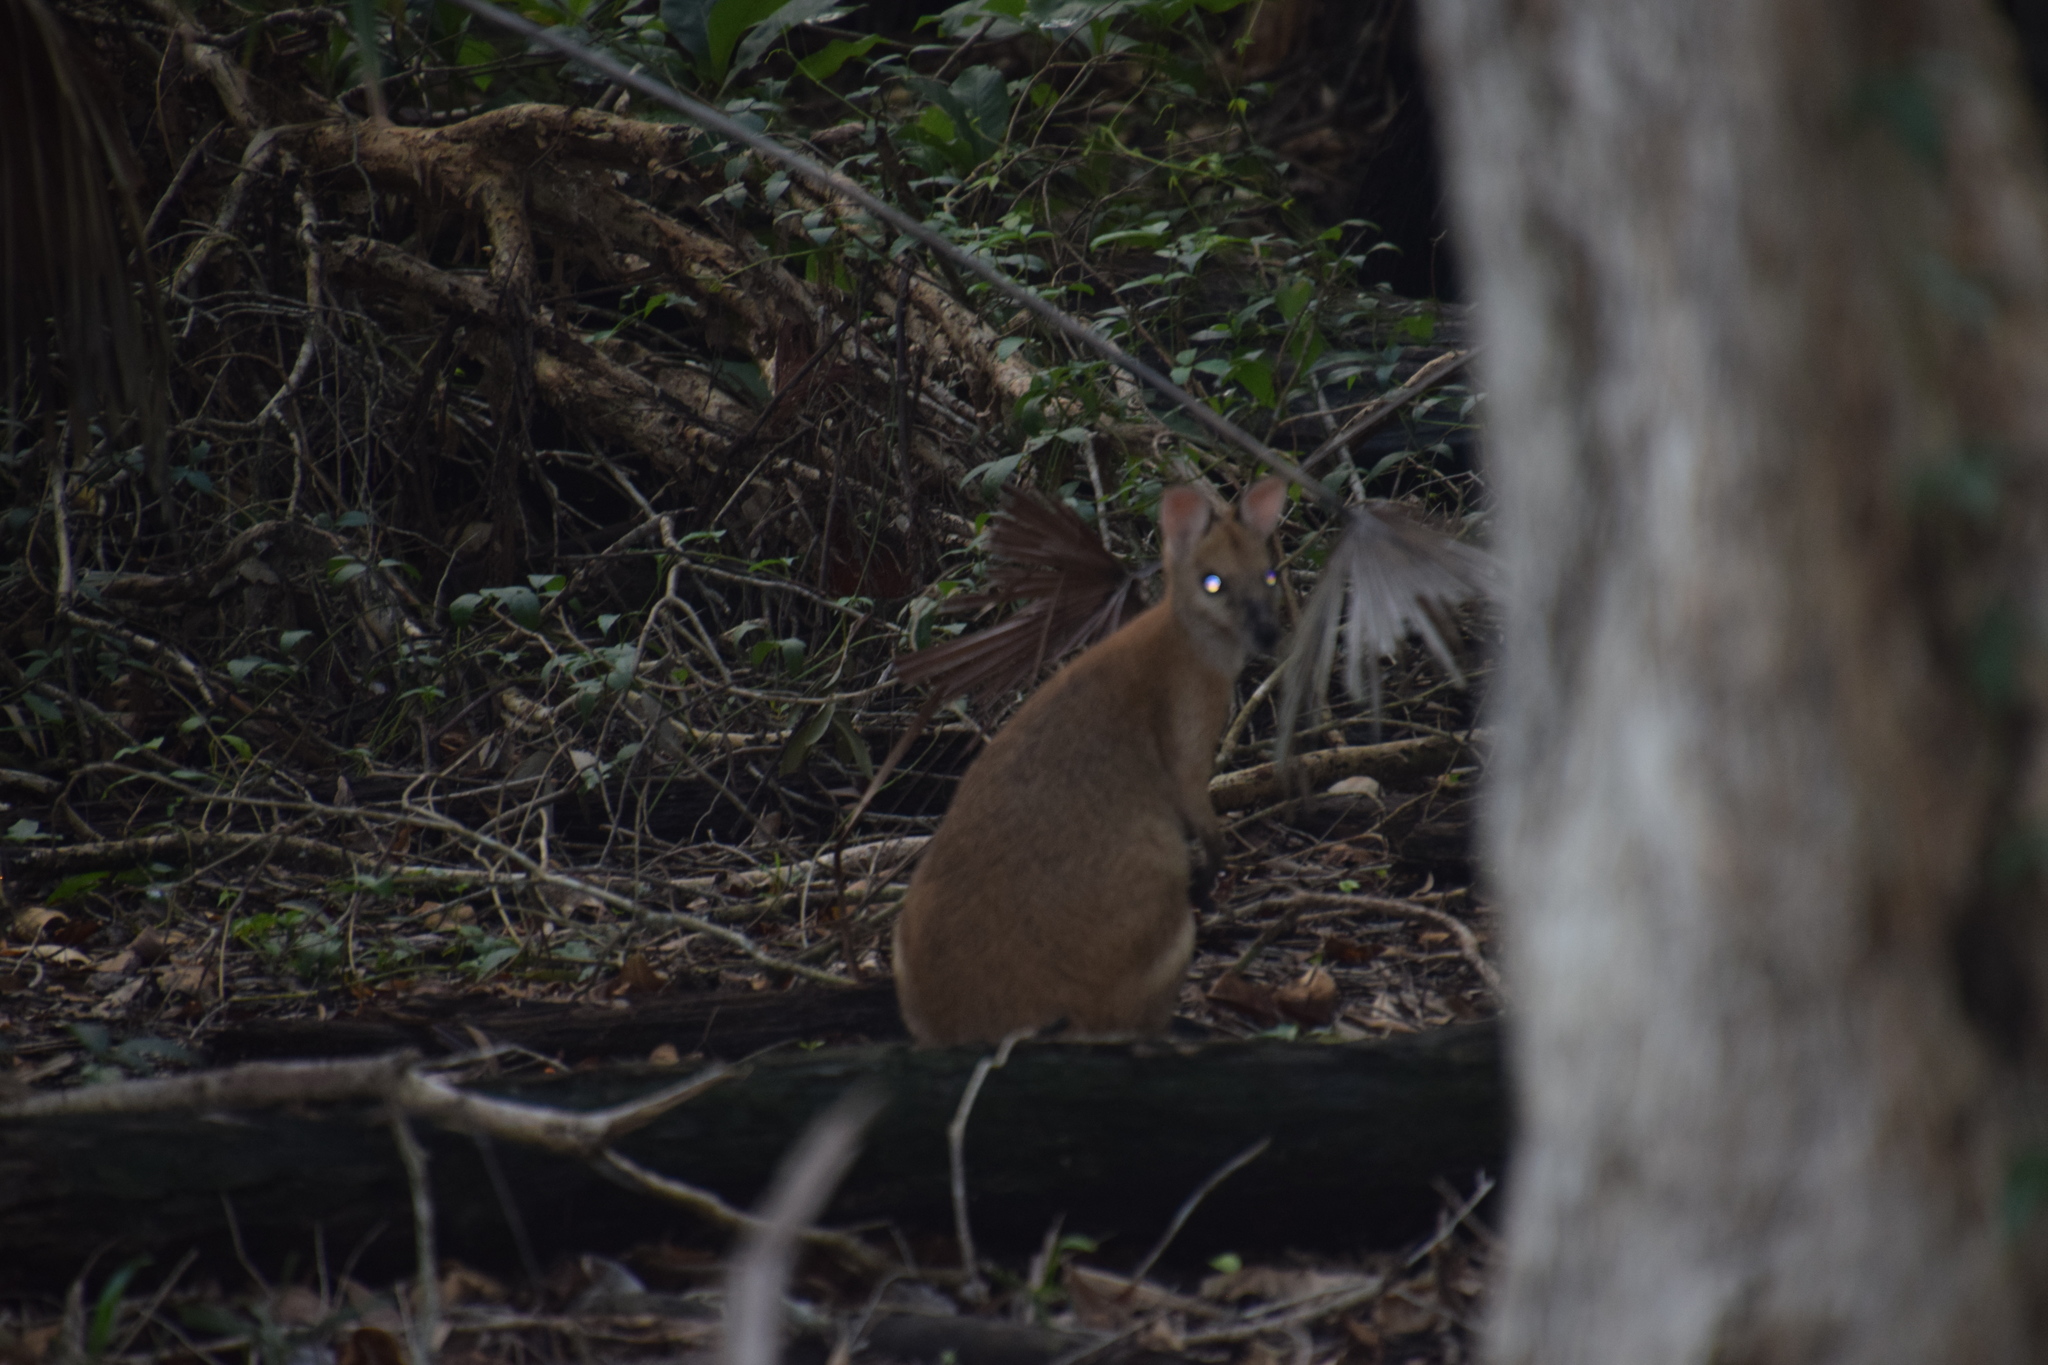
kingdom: Animalia
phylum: Chordata
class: Mammalia
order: Diprotodontia
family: Macropodidae
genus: Macropus
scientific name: Macropus agilis
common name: Agile wallaby
